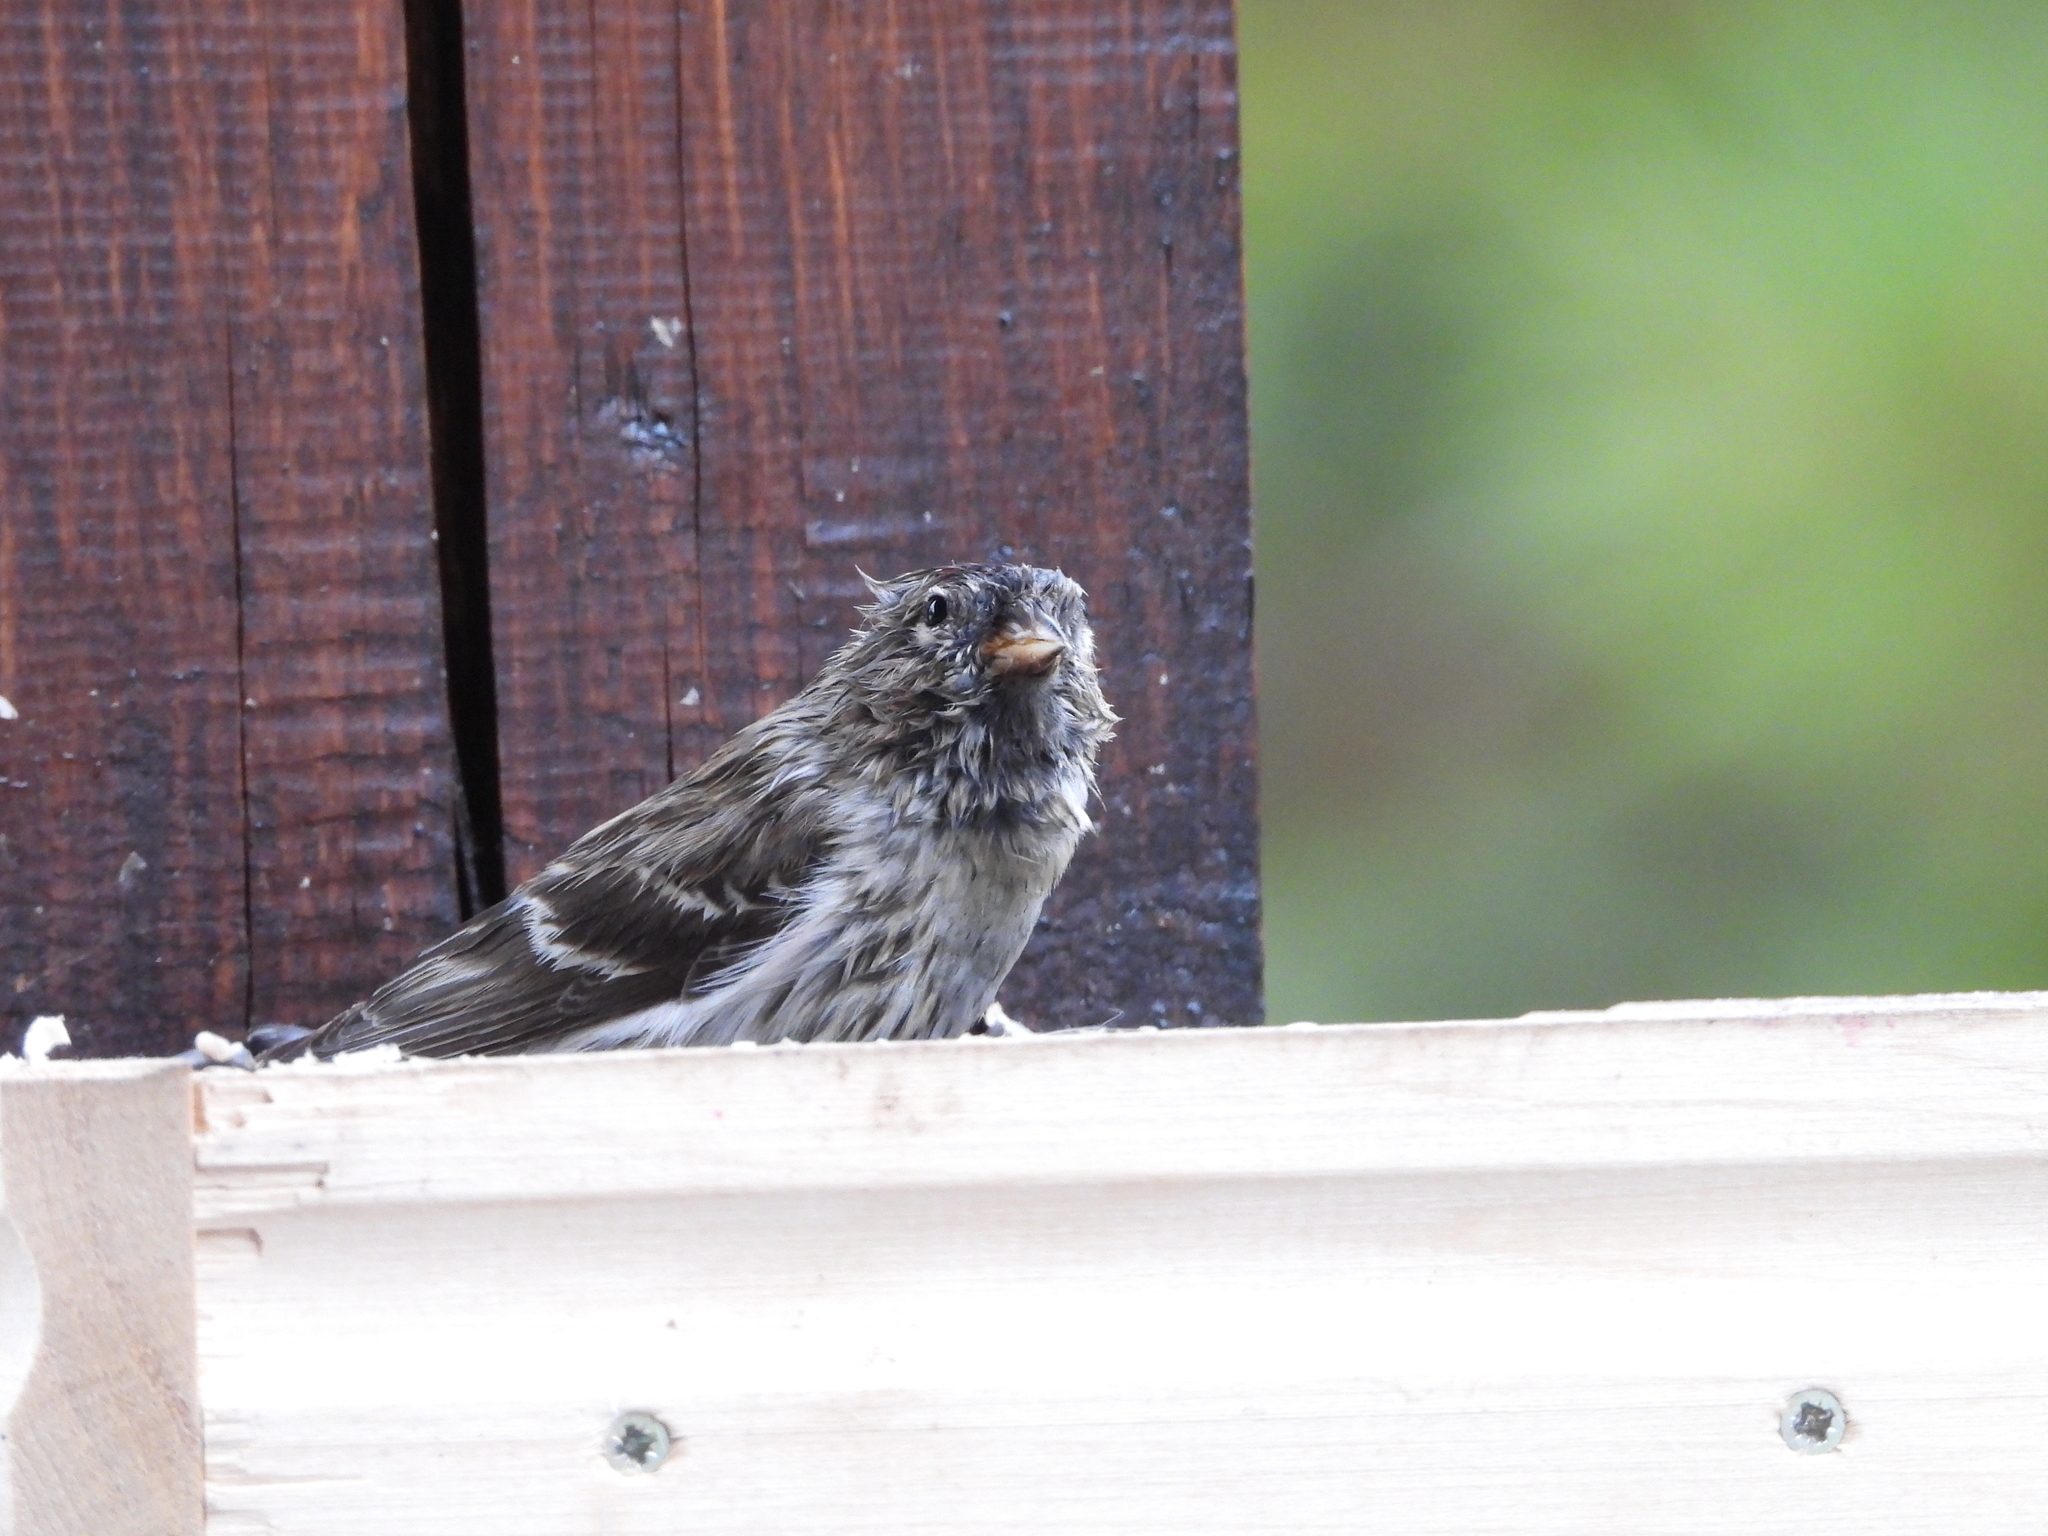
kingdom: Animalia
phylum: Chordata
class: Aves
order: Passeriformes
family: Fringillidae
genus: Acanthis
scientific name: Acanthis flammea
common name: Common redpoll
